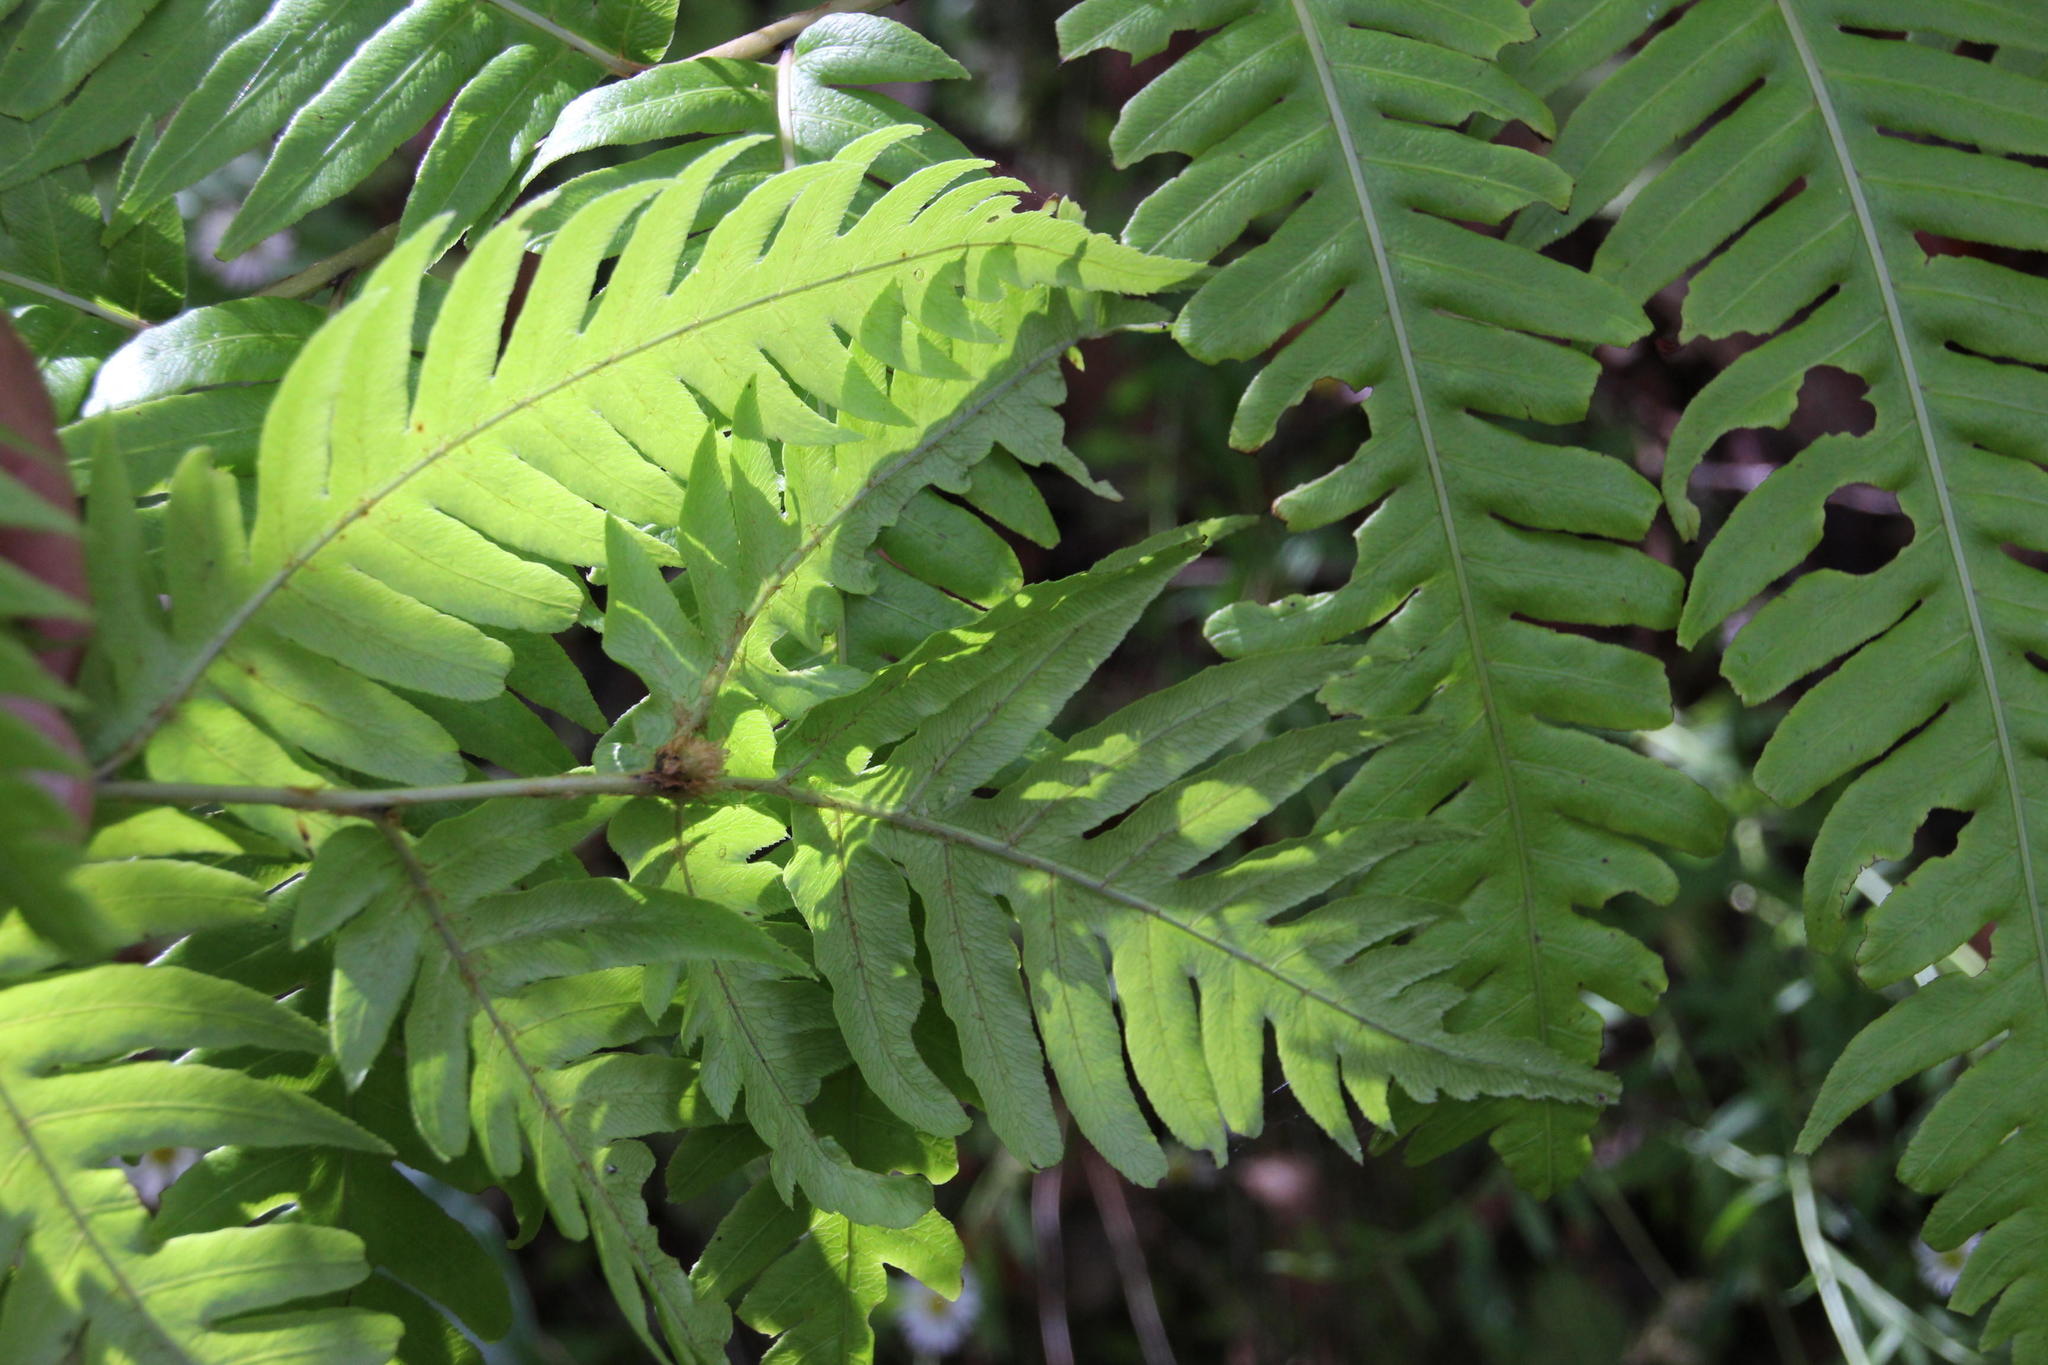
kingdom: Plantae
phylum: Tracheophyta
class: Polypodiopsida
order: Polypodiales
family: Blechnaceae
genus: Woodwardia
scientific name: Woodwardia radicans
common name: Rooting chainfern
